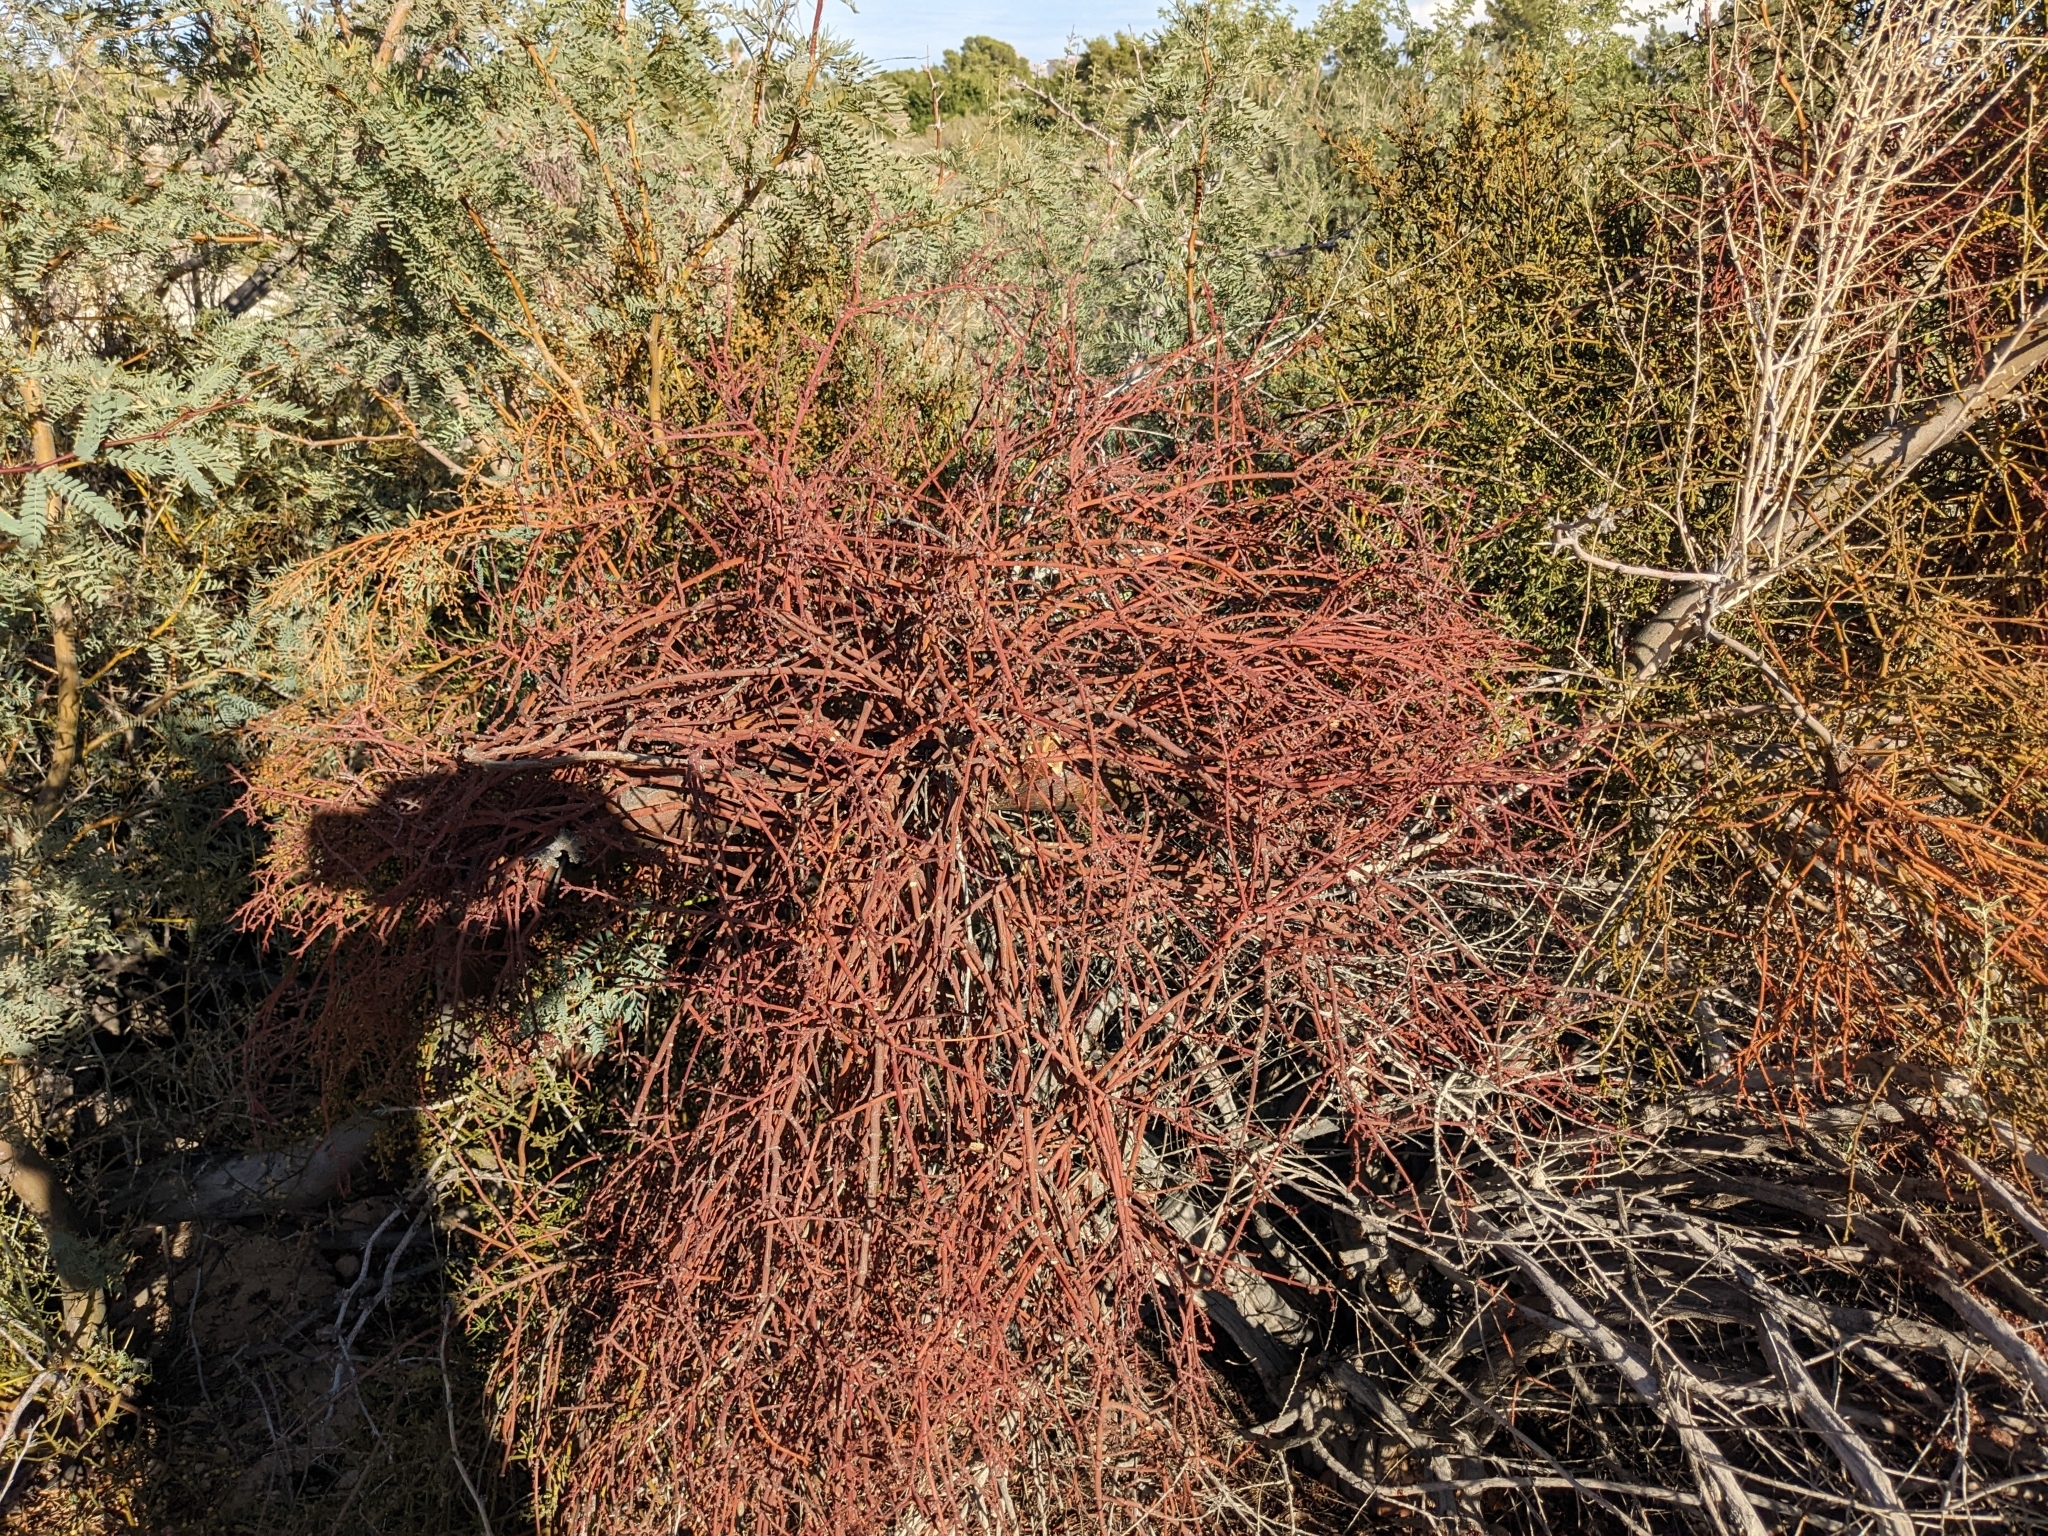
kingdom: Plantae
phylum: Tracheophyta
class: Magnoliopsida
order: Santalales
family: Viscaceae
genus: Phoradendron
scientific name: Phoradendron californicum
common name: Acacia mistletoe
